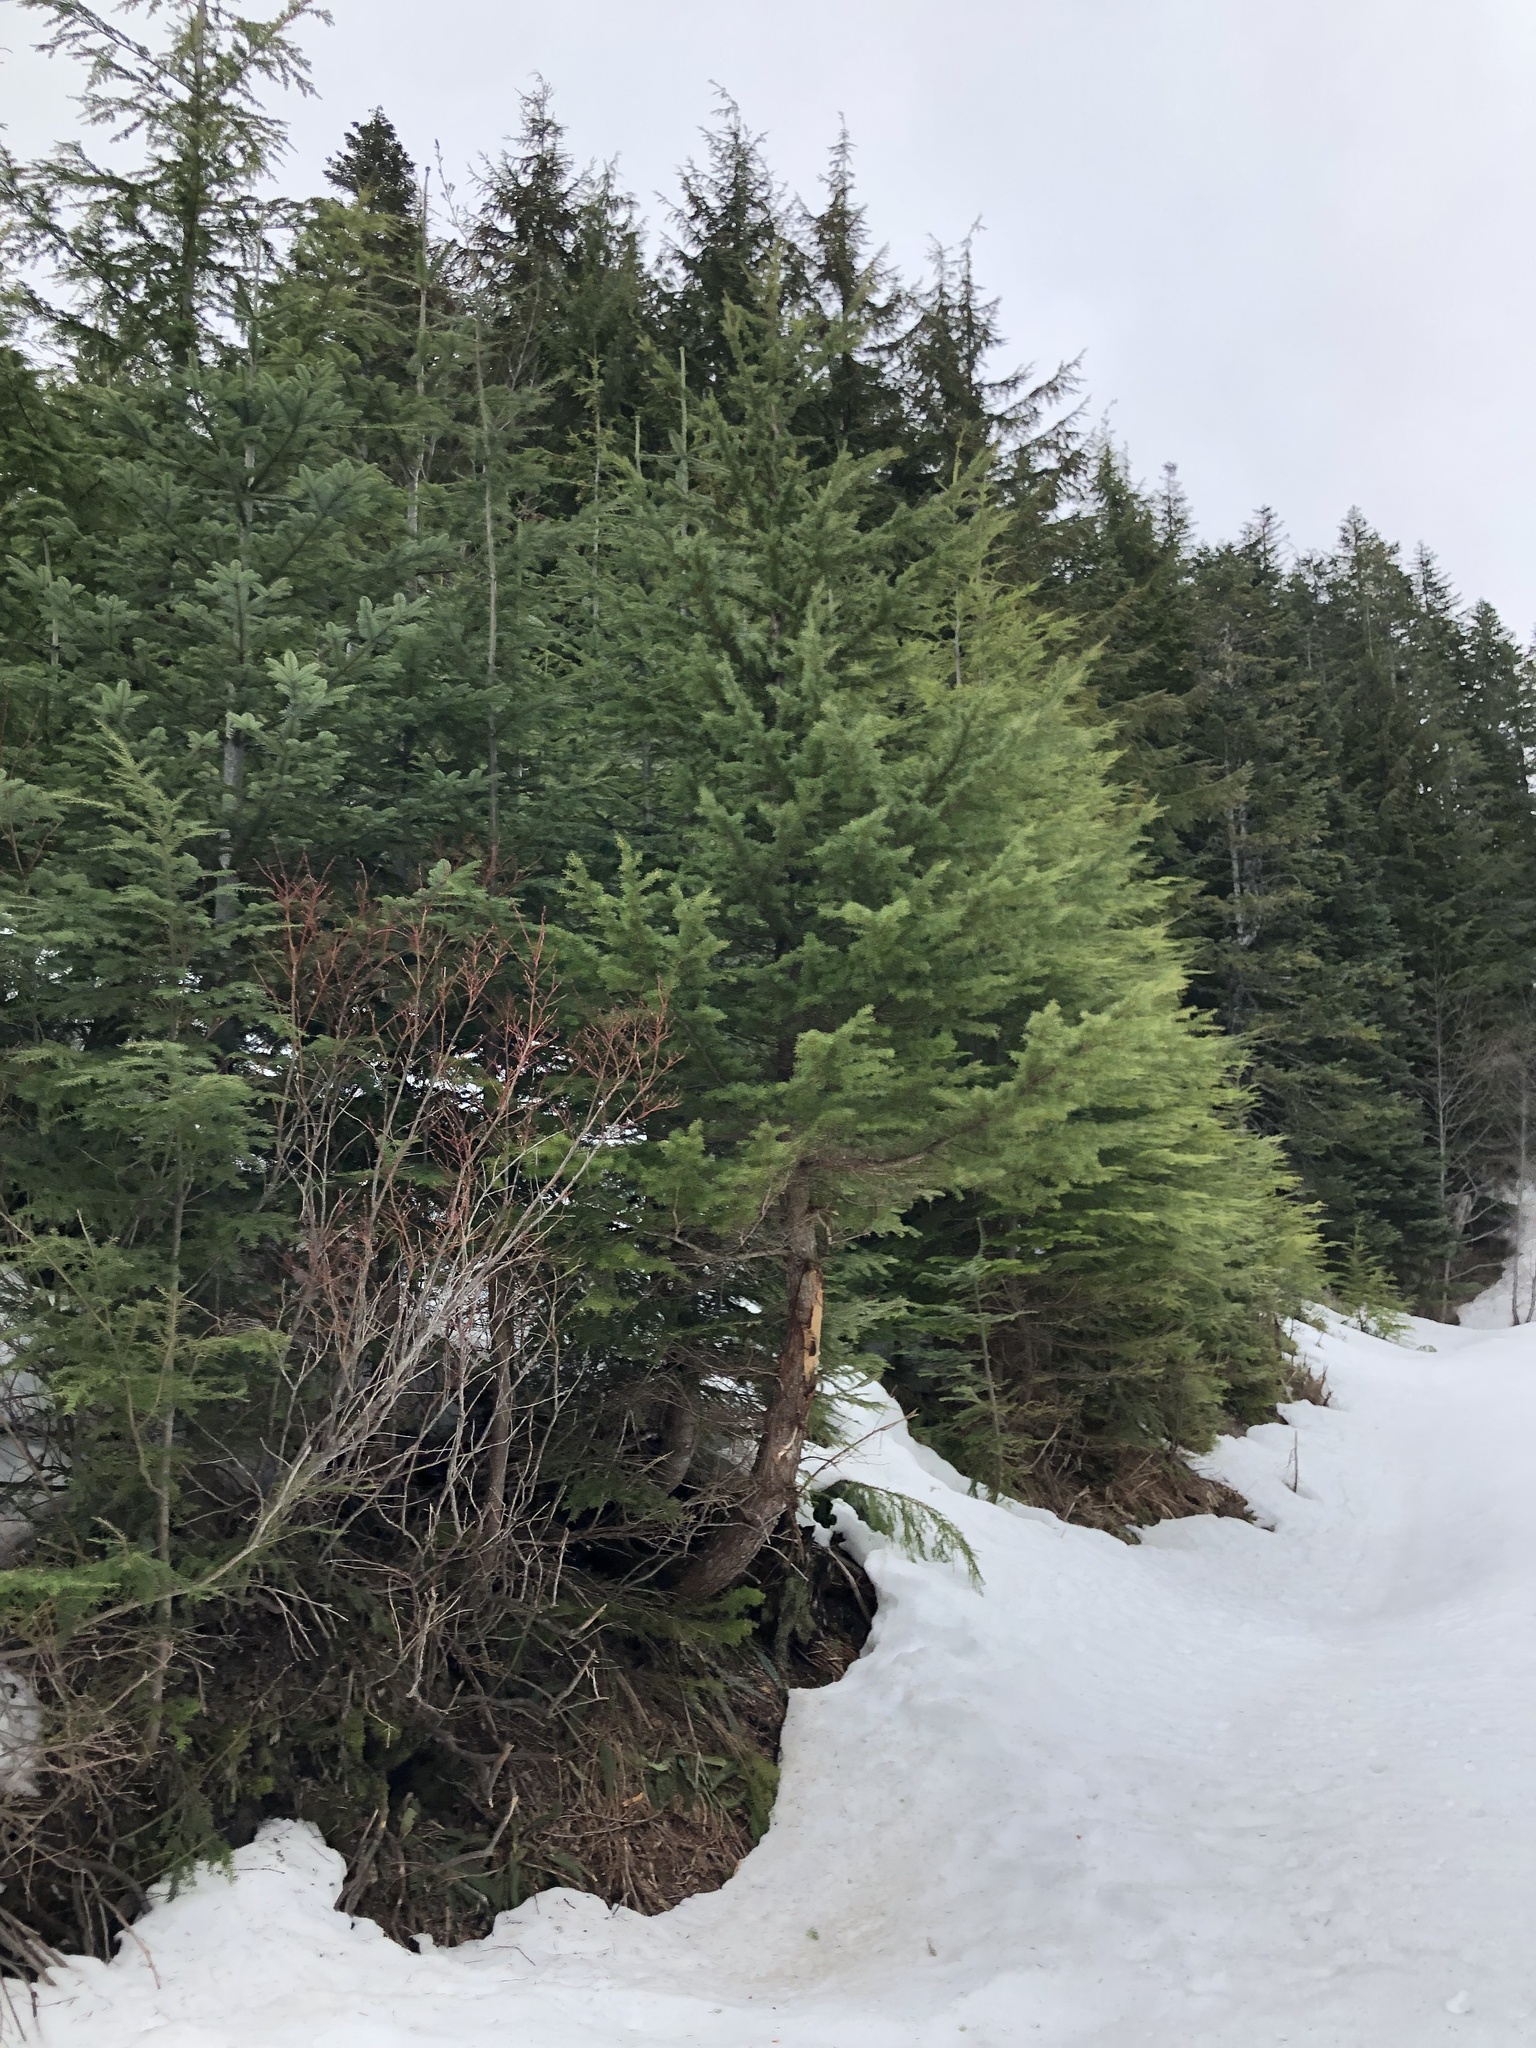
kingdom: Plantae
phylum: Tracheophyta
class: Pinopsida
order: Pinales
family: Pinaceae
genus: Tsuga
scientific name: Tsuga mertensiana
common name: Mountain hemlock
